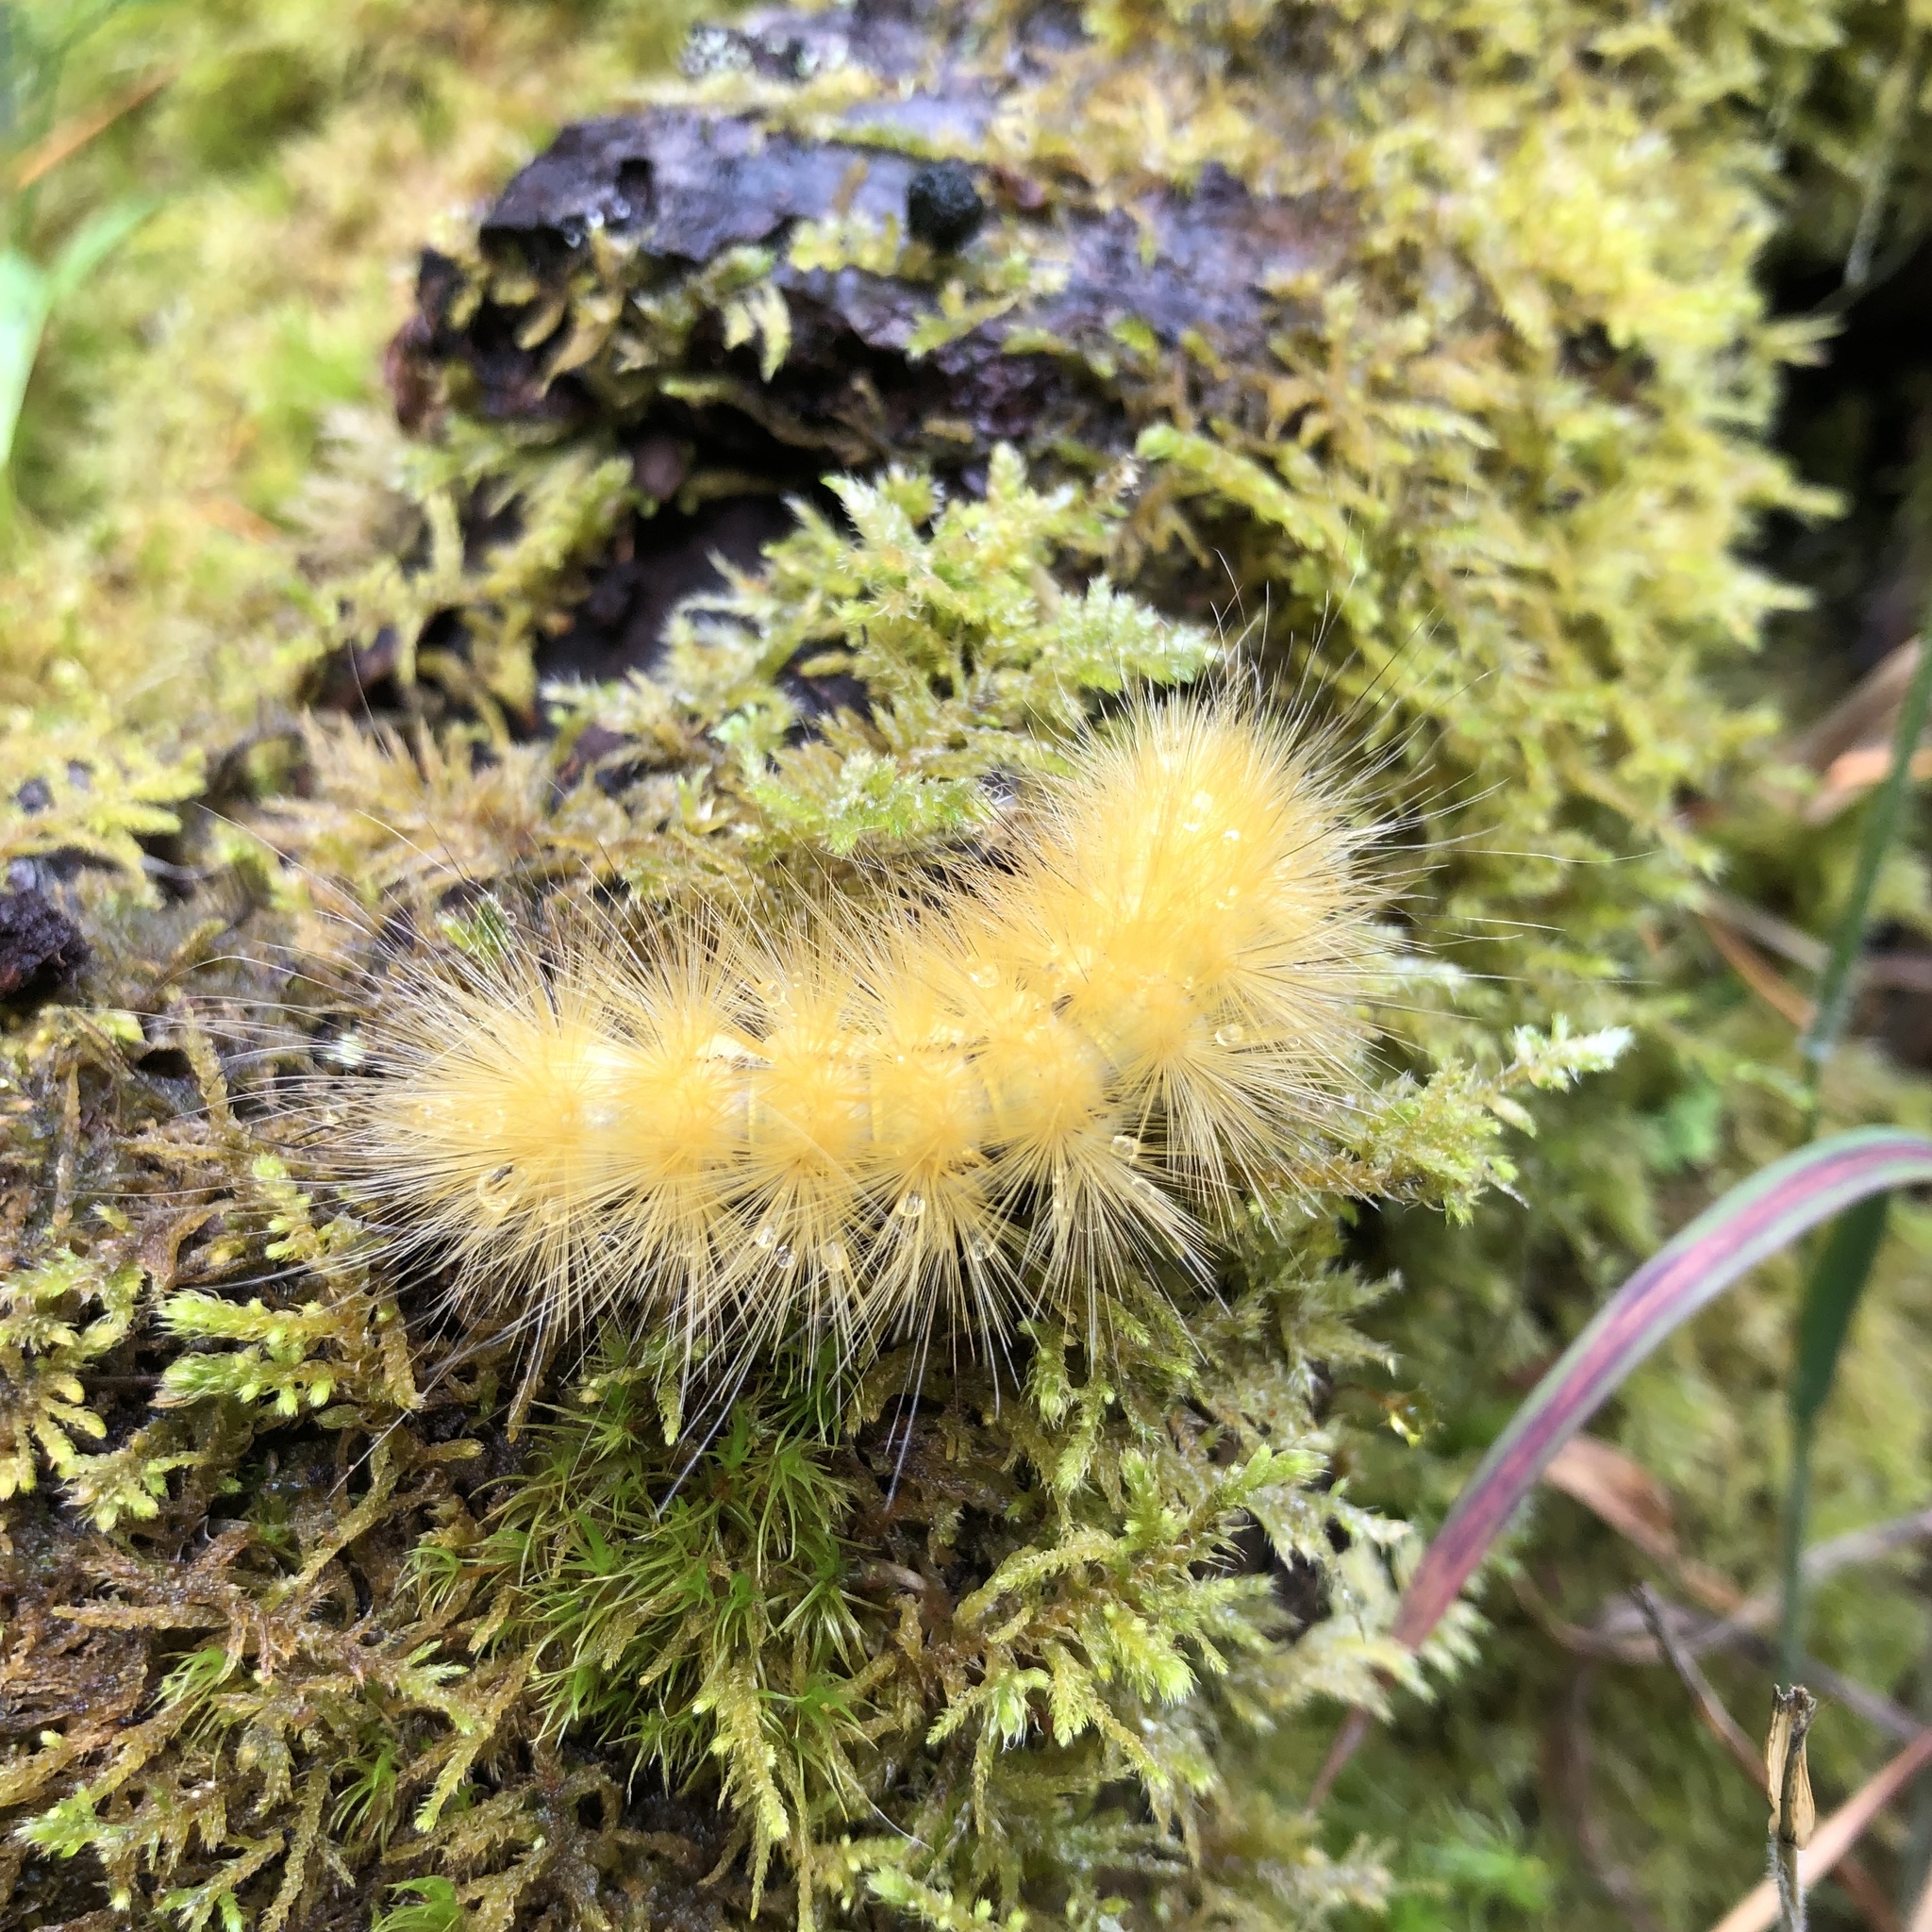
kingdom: Animalia
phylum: Arthropoda
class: Insecta
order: Lepidoptera
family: Erebidae
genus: Spilosoma
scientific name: Spilosoma virginica
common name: Virginia tiger moth
